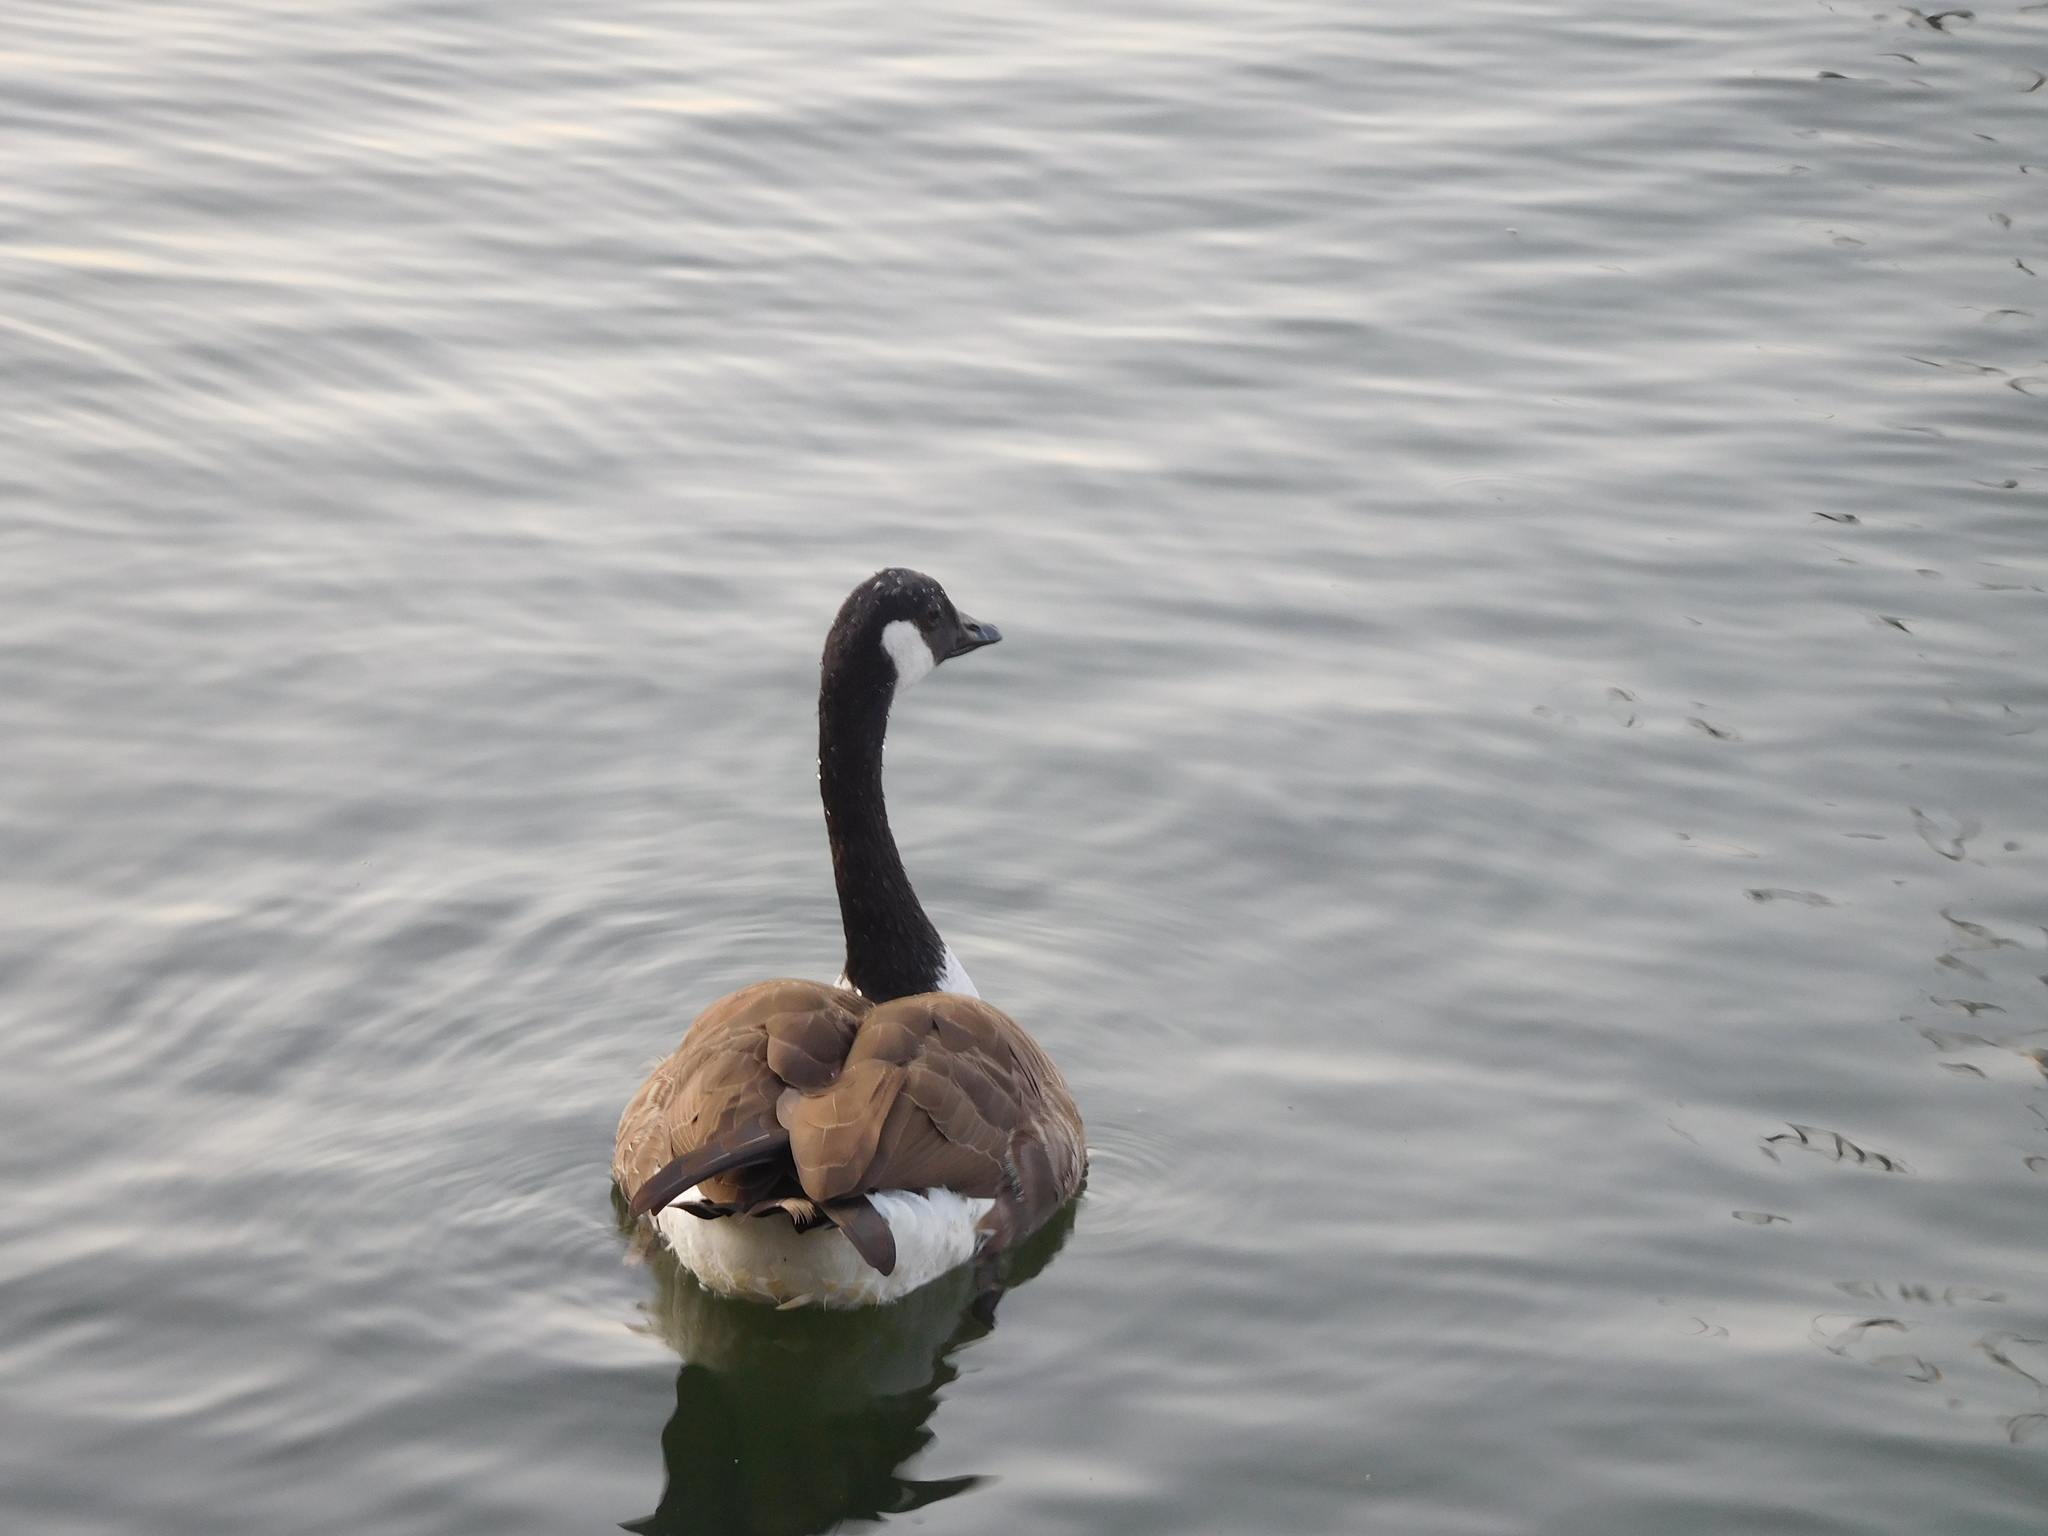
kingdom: Animalia
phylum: Chordata
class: Aves
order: Anseriformes
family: Anatidae
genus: Branta
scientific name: Branta canadensis
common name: Canada goose
